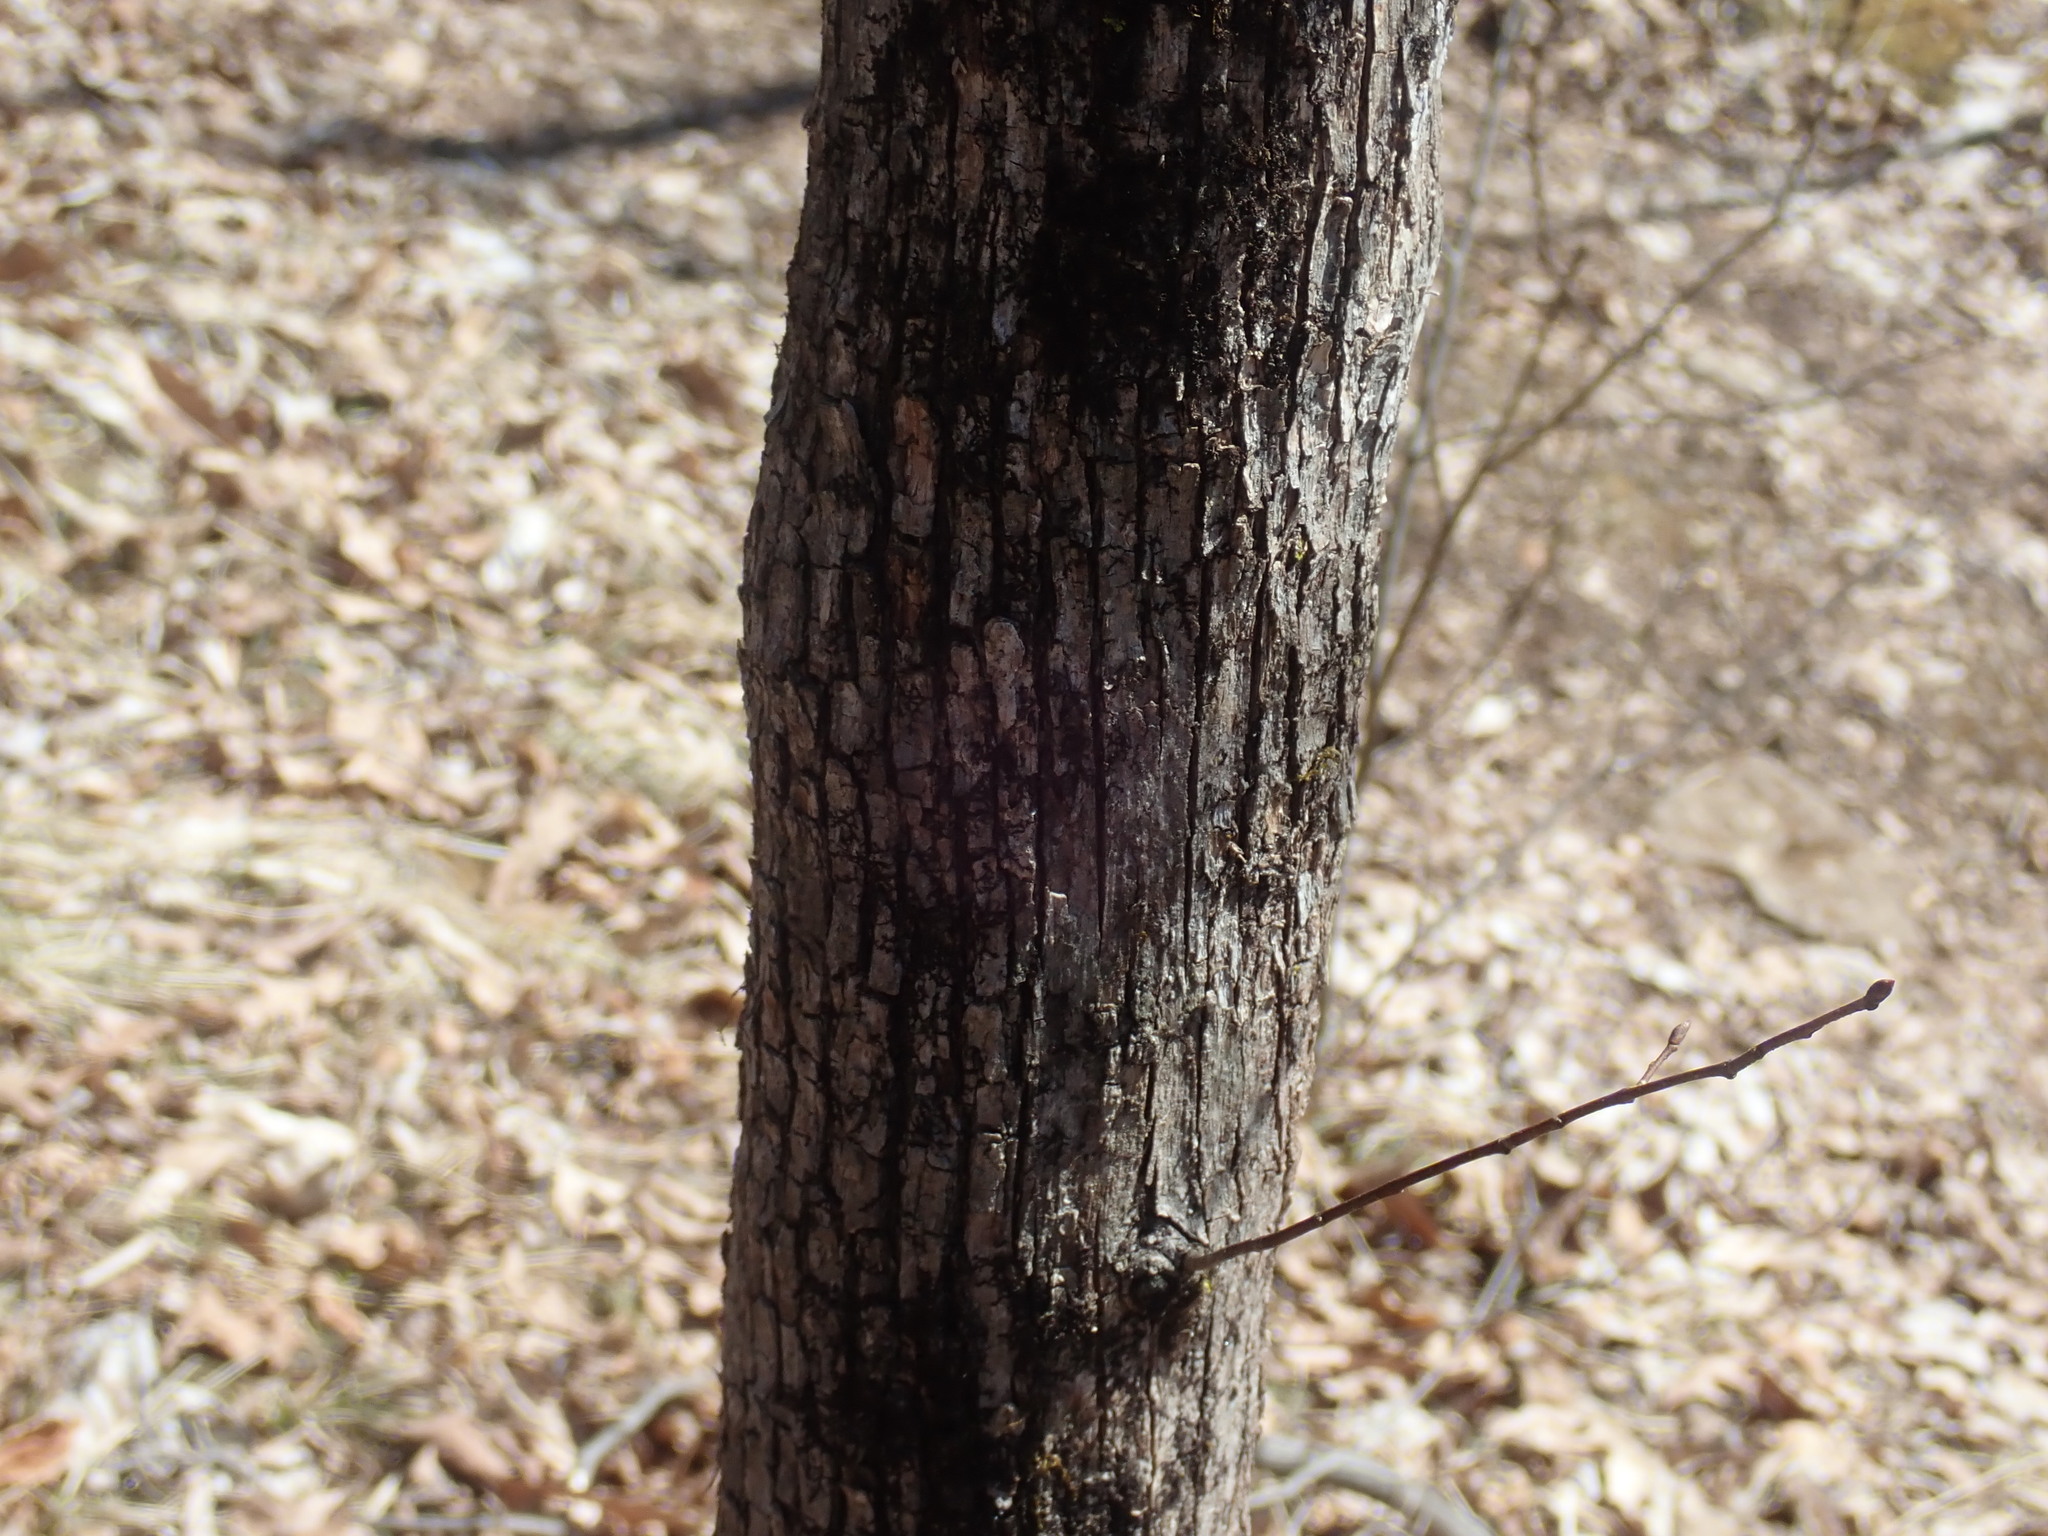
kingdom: Plantae
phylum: Tracheophyta
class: Magnoliopsida
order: Fagales
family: Betulaceae
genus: Ostrya
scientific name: Ostrya virginiana
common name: Ironwood
